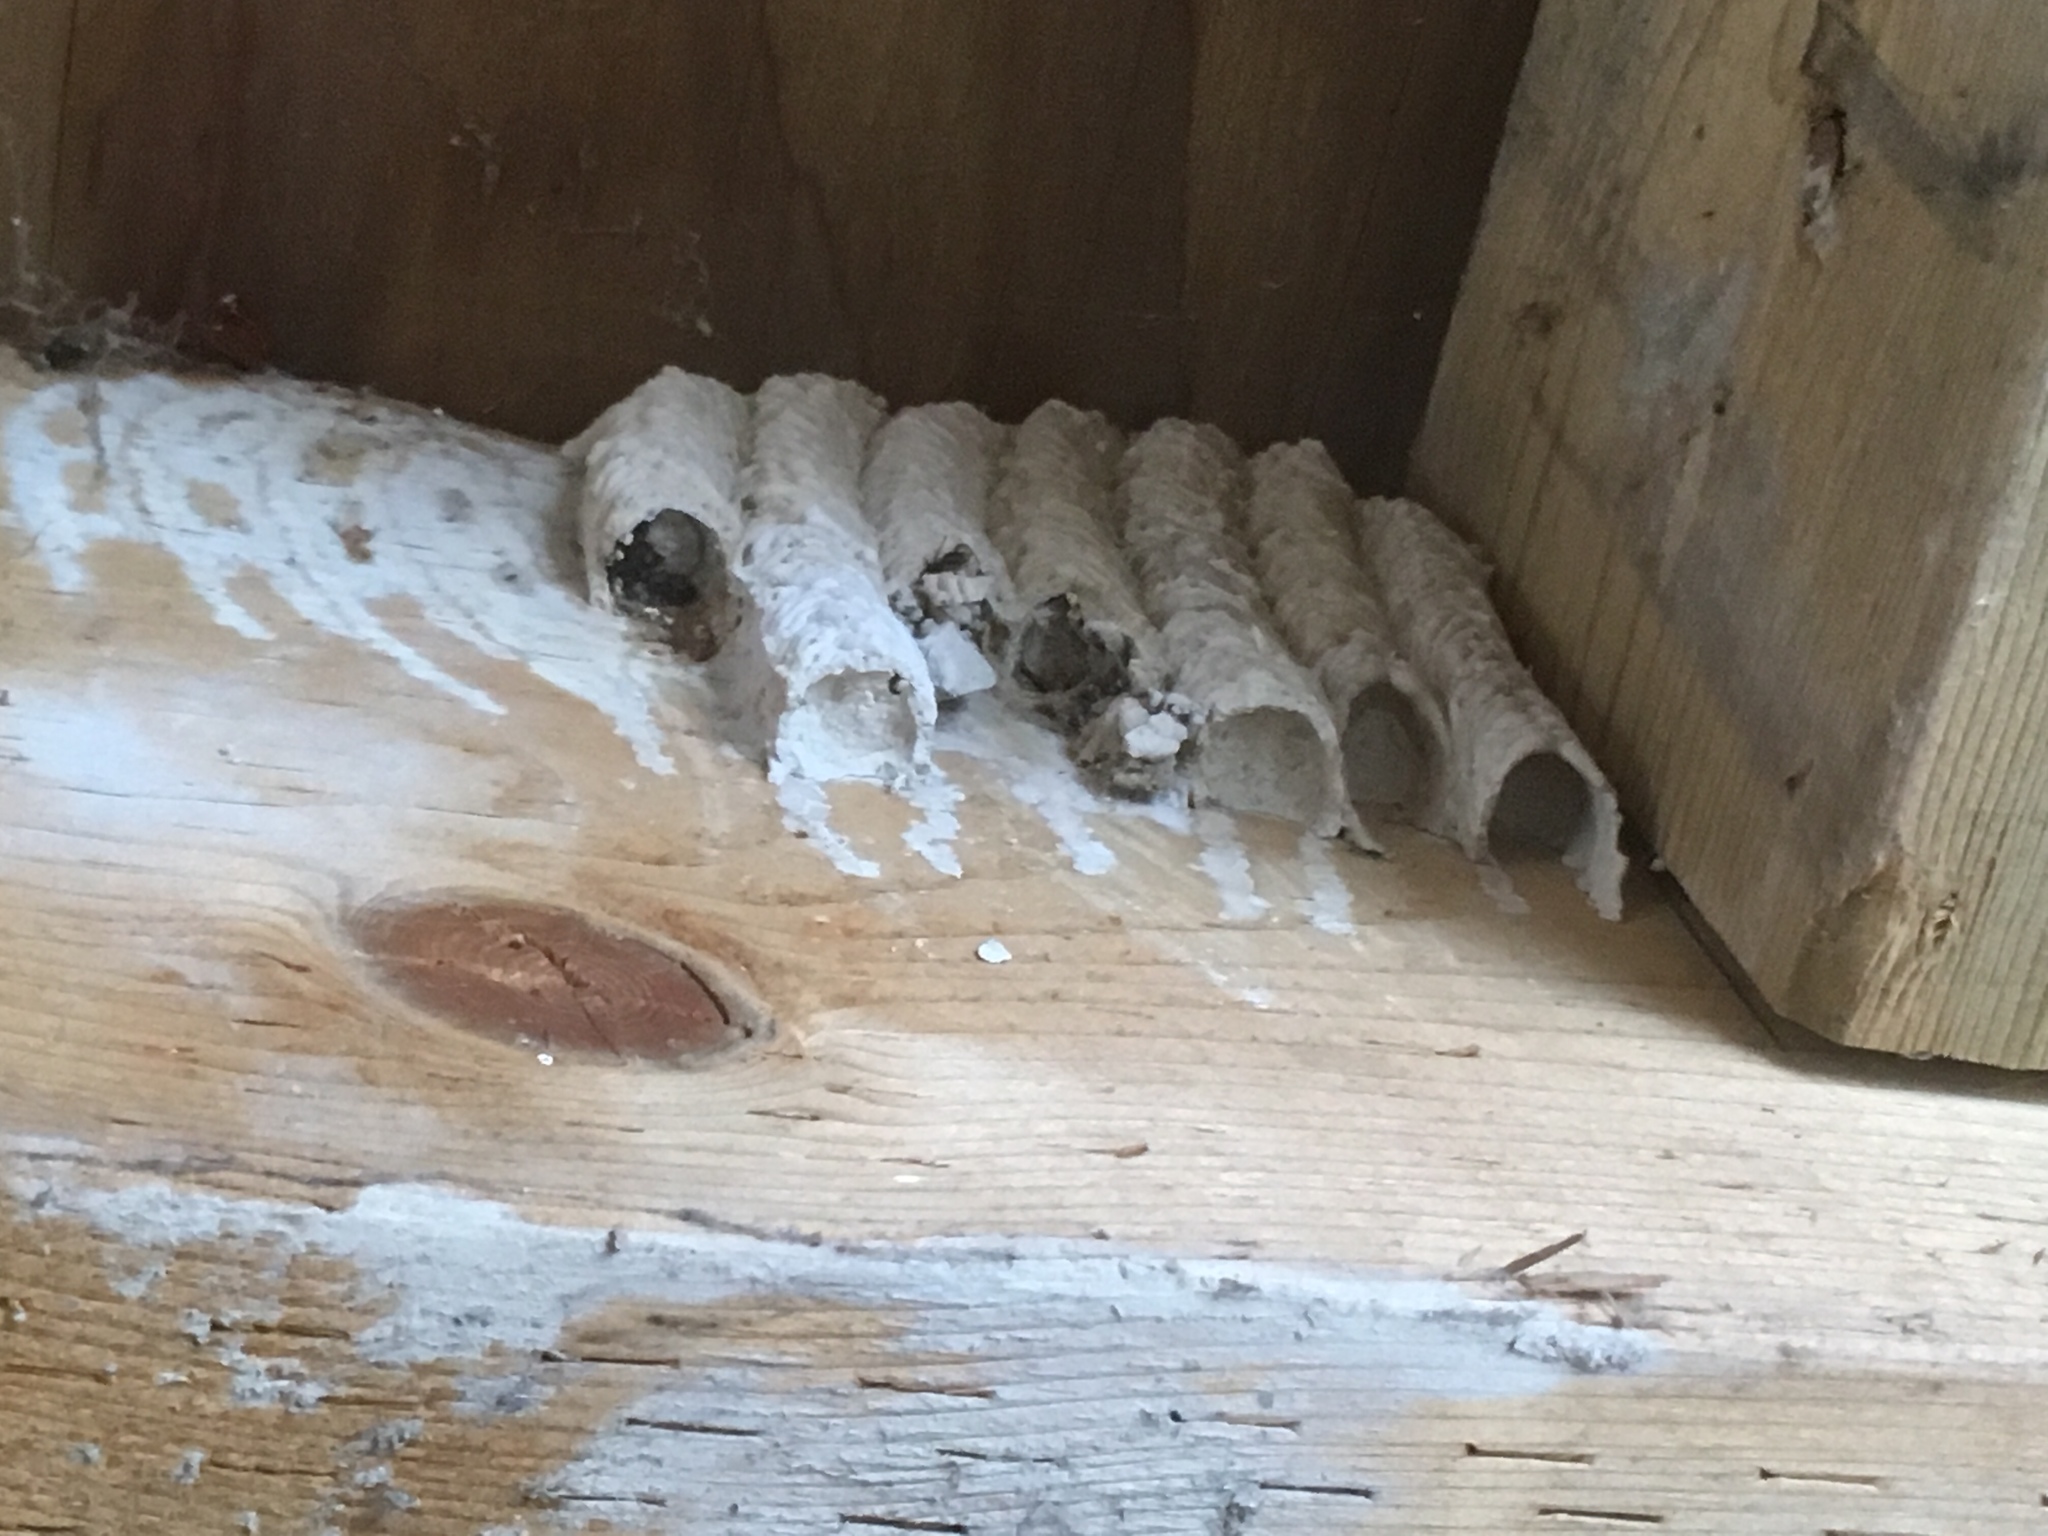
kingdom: Animalia
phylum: Arthropoda
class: Insecta
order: Hymenoptera
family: Crabronidae
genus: Trypoxylon
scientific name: Trypoxylon politum
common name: Organ-pipe mud-dauber wasp
